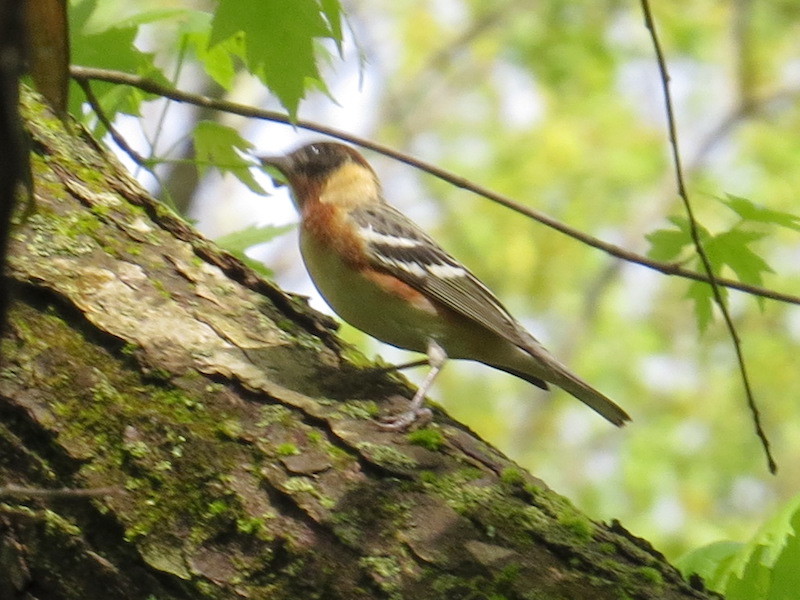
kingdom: Animalia
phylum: Chordata
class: Aves
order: Passeriformes
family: Parulidae
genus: Setophaga
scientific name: Setophaga castanea
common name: Bay-breasted warbler
